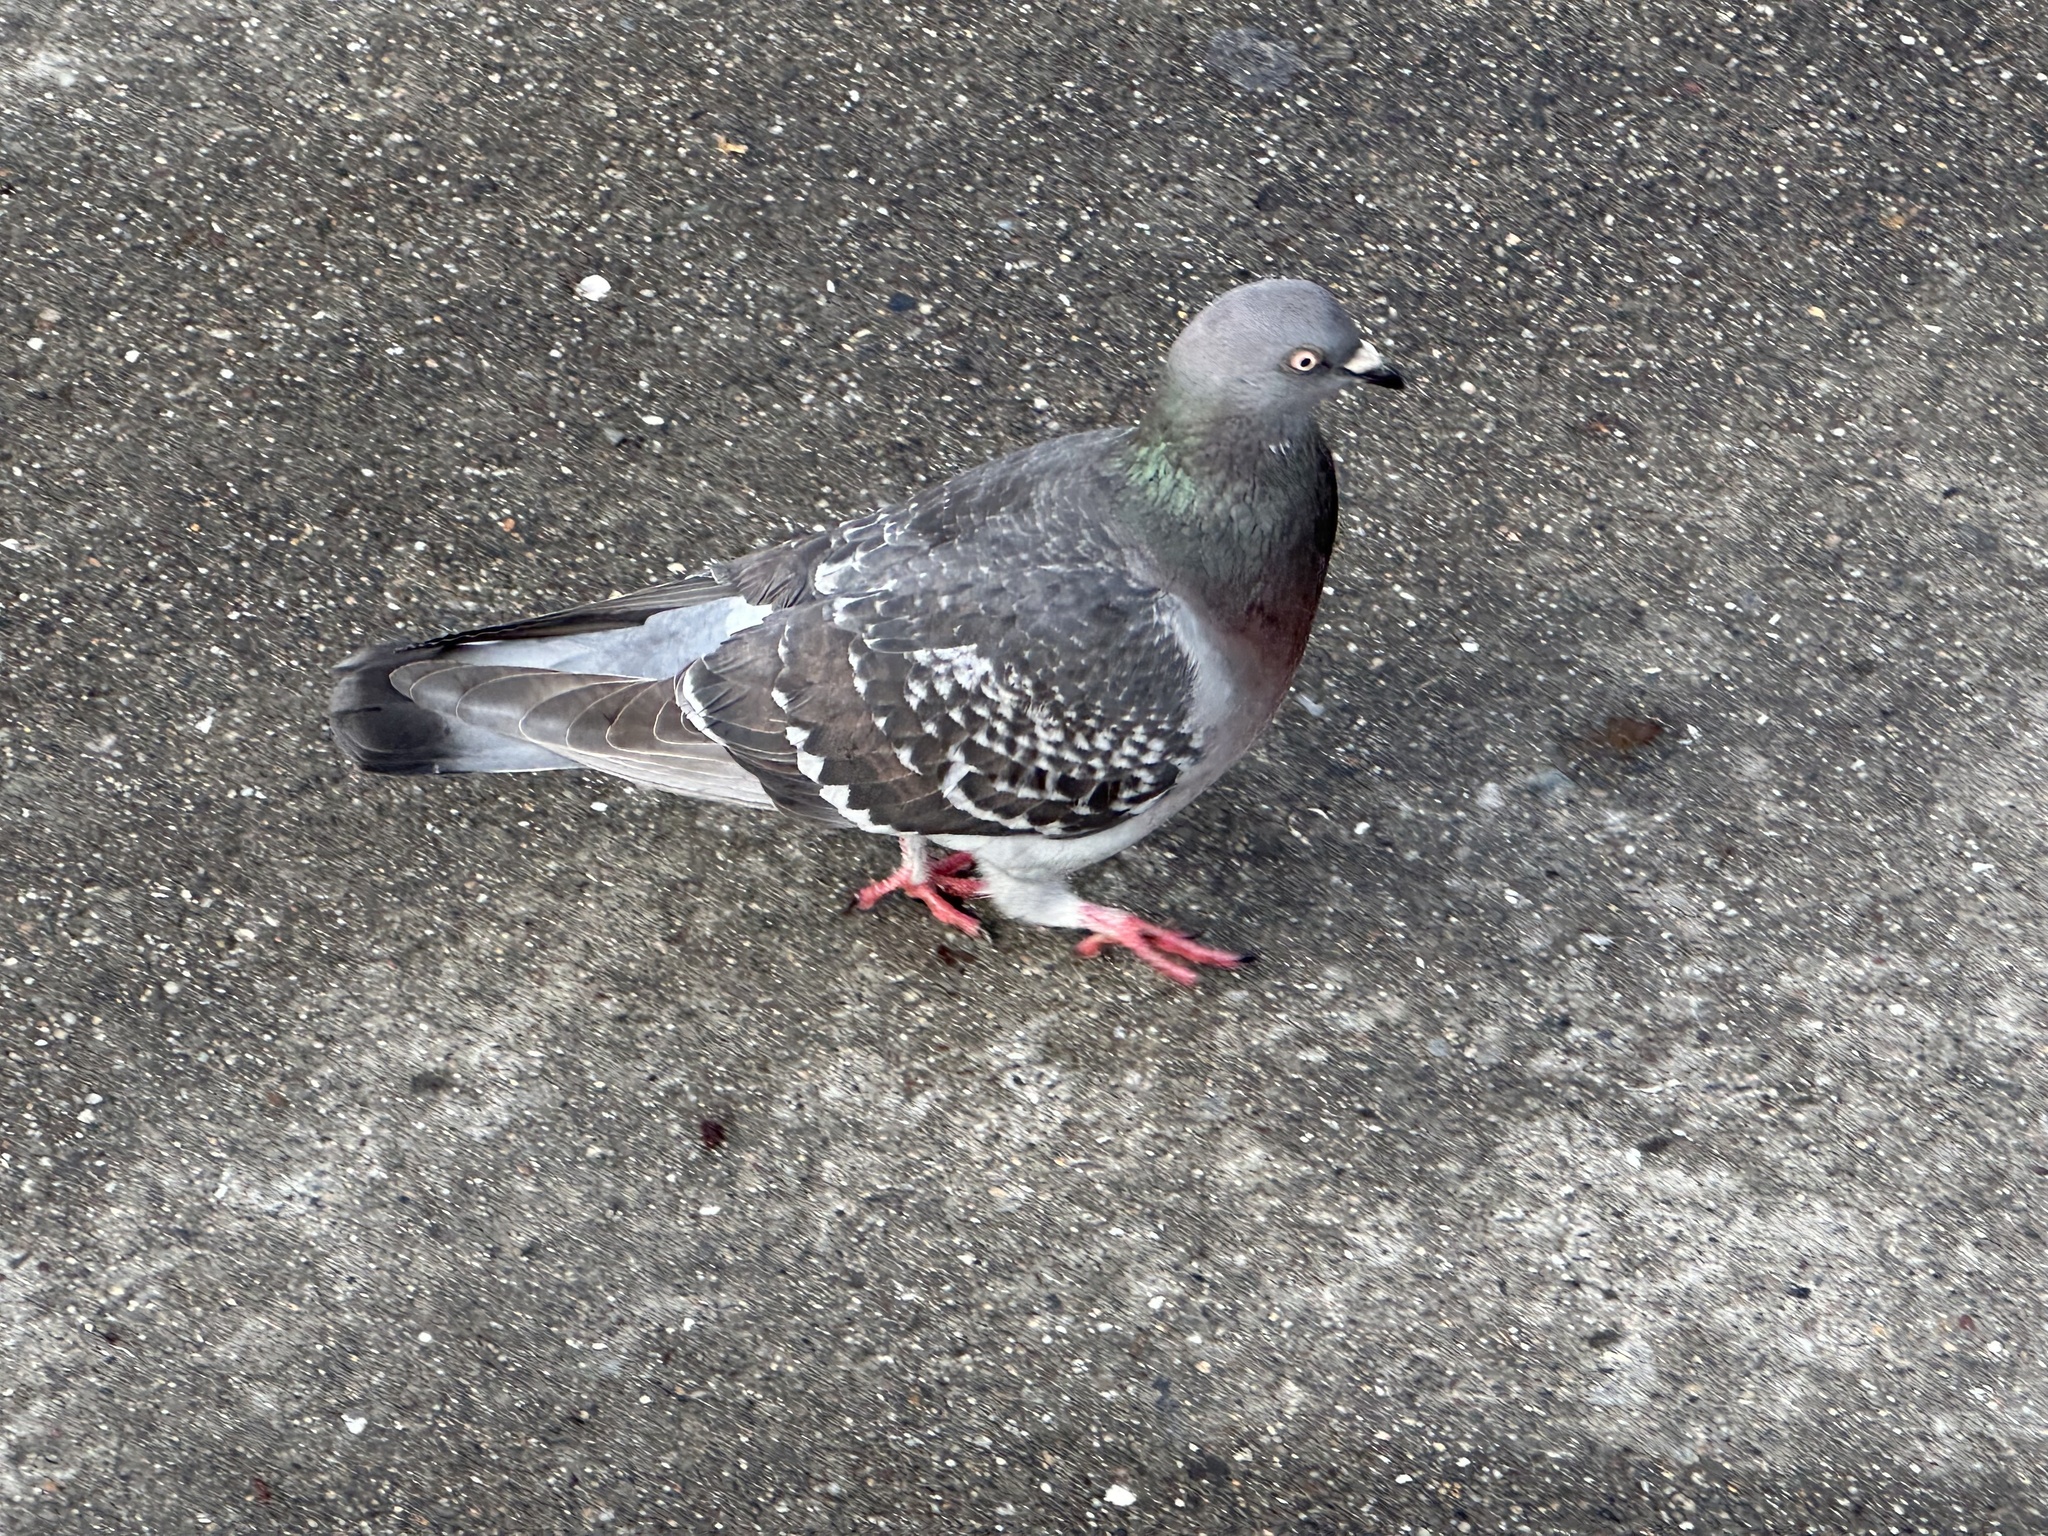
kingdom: Animalia
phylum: Chordata
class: Aves
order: Columbiformes
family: Columbidae
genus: Columba
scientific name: Columba livia
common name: Rock pigeon
